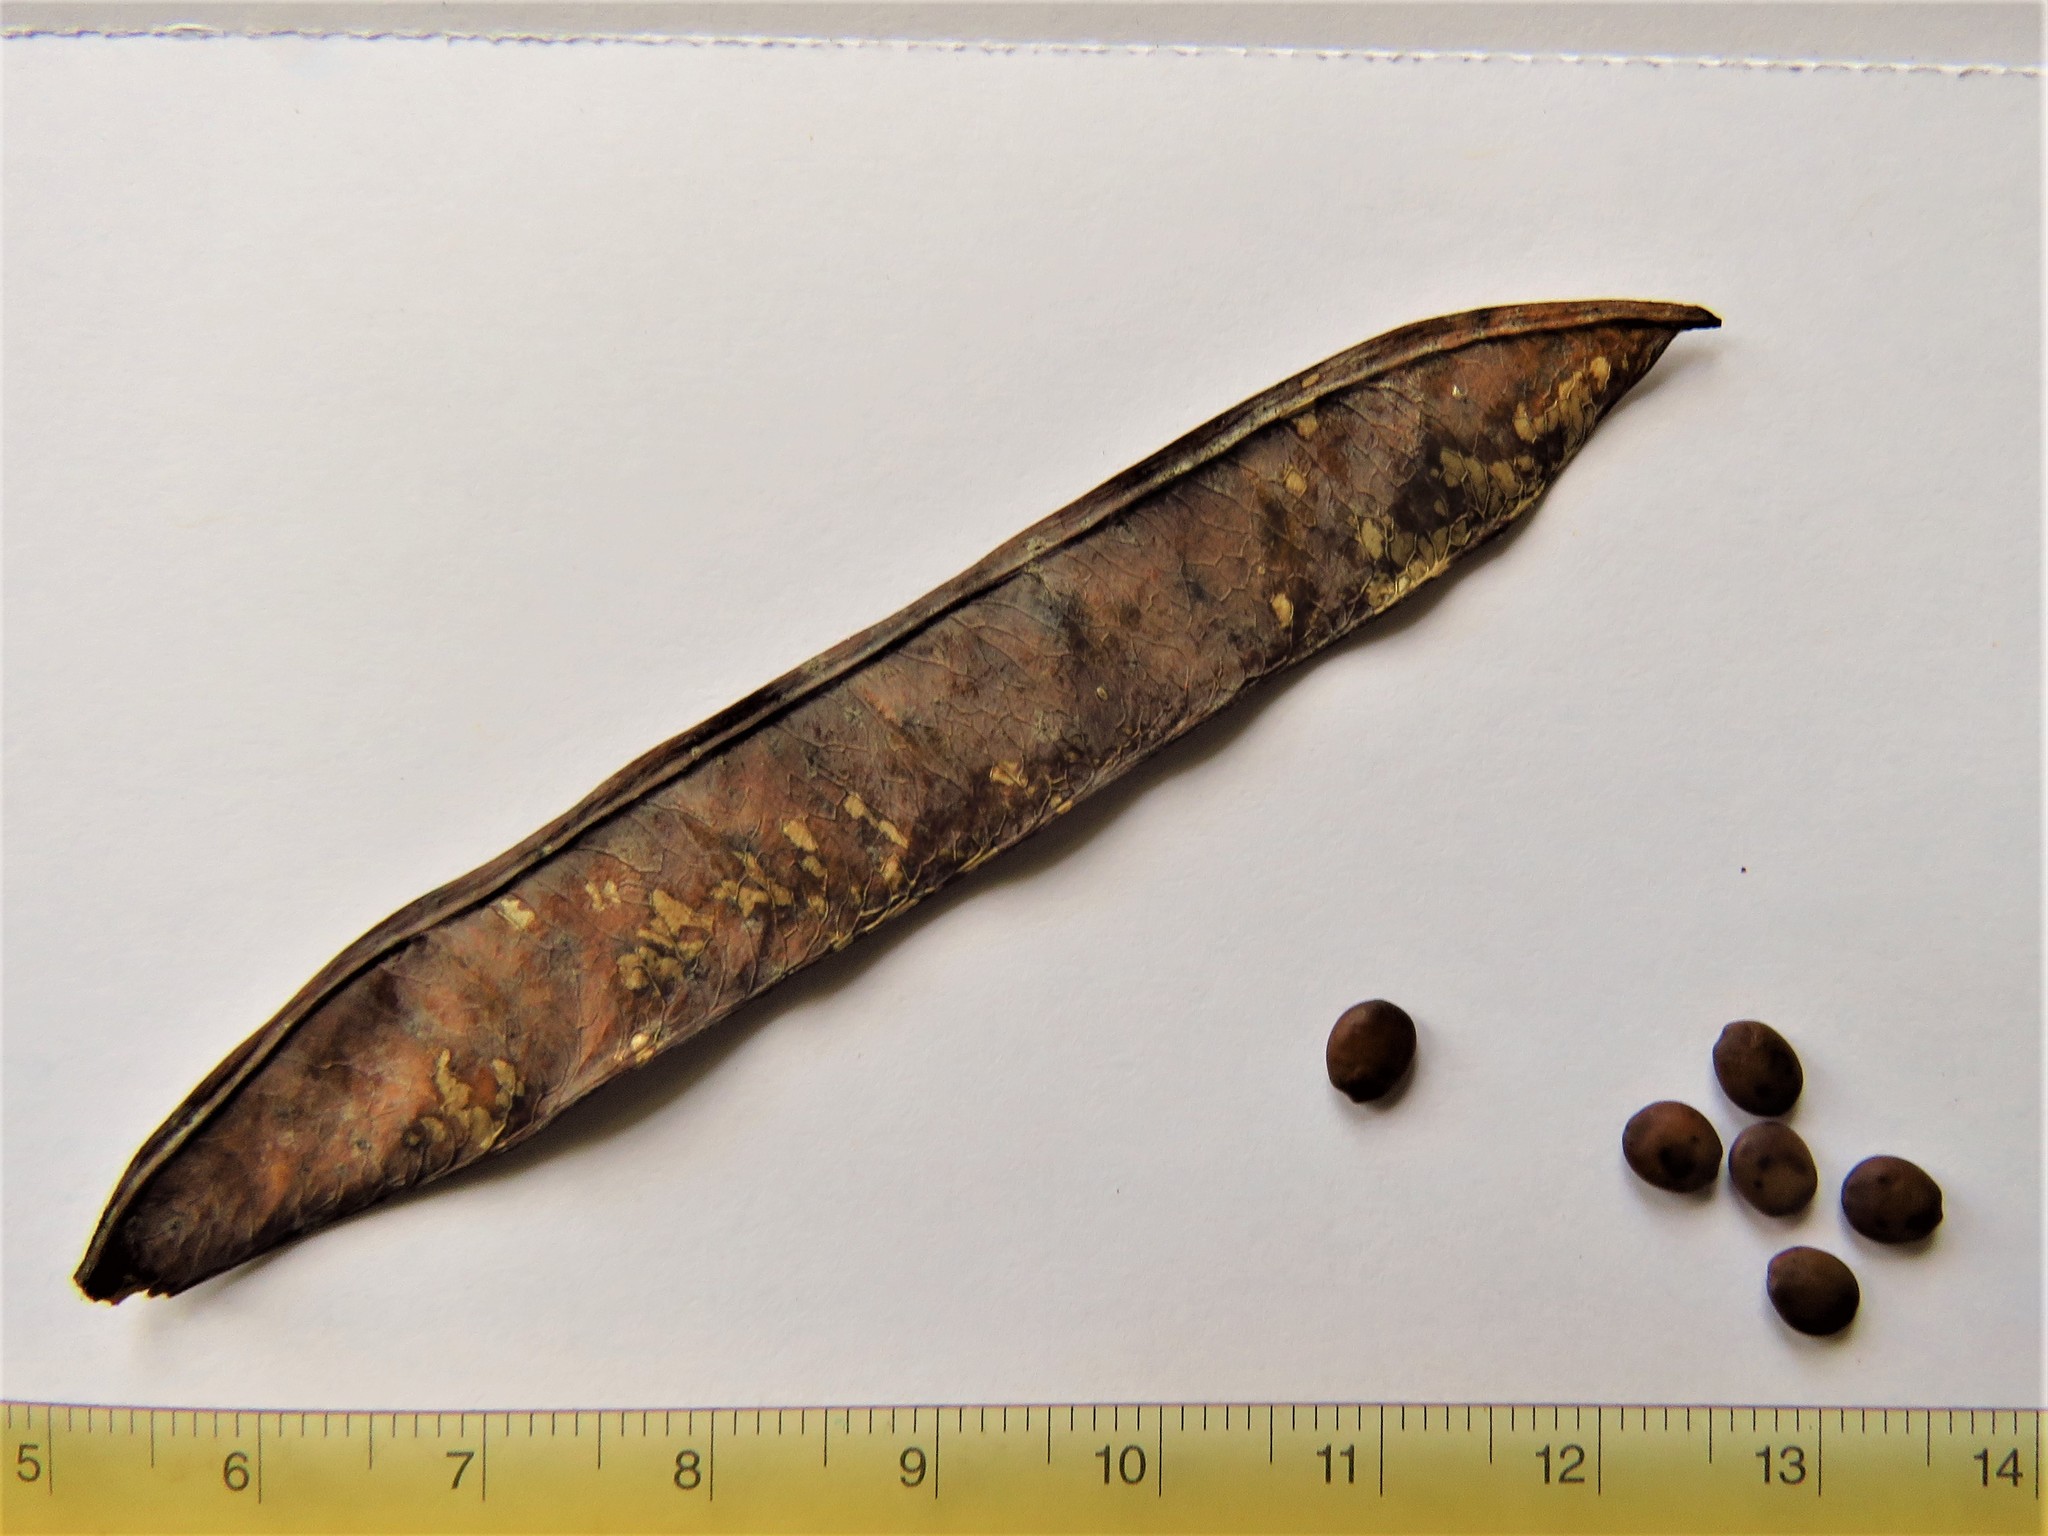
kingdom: Plantae
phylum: Tracheophyta
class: Magnoliopsida
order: Fabales
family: Fabaceae
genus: Cercis
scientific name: Cercis canadensis
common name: Eastern redbud
